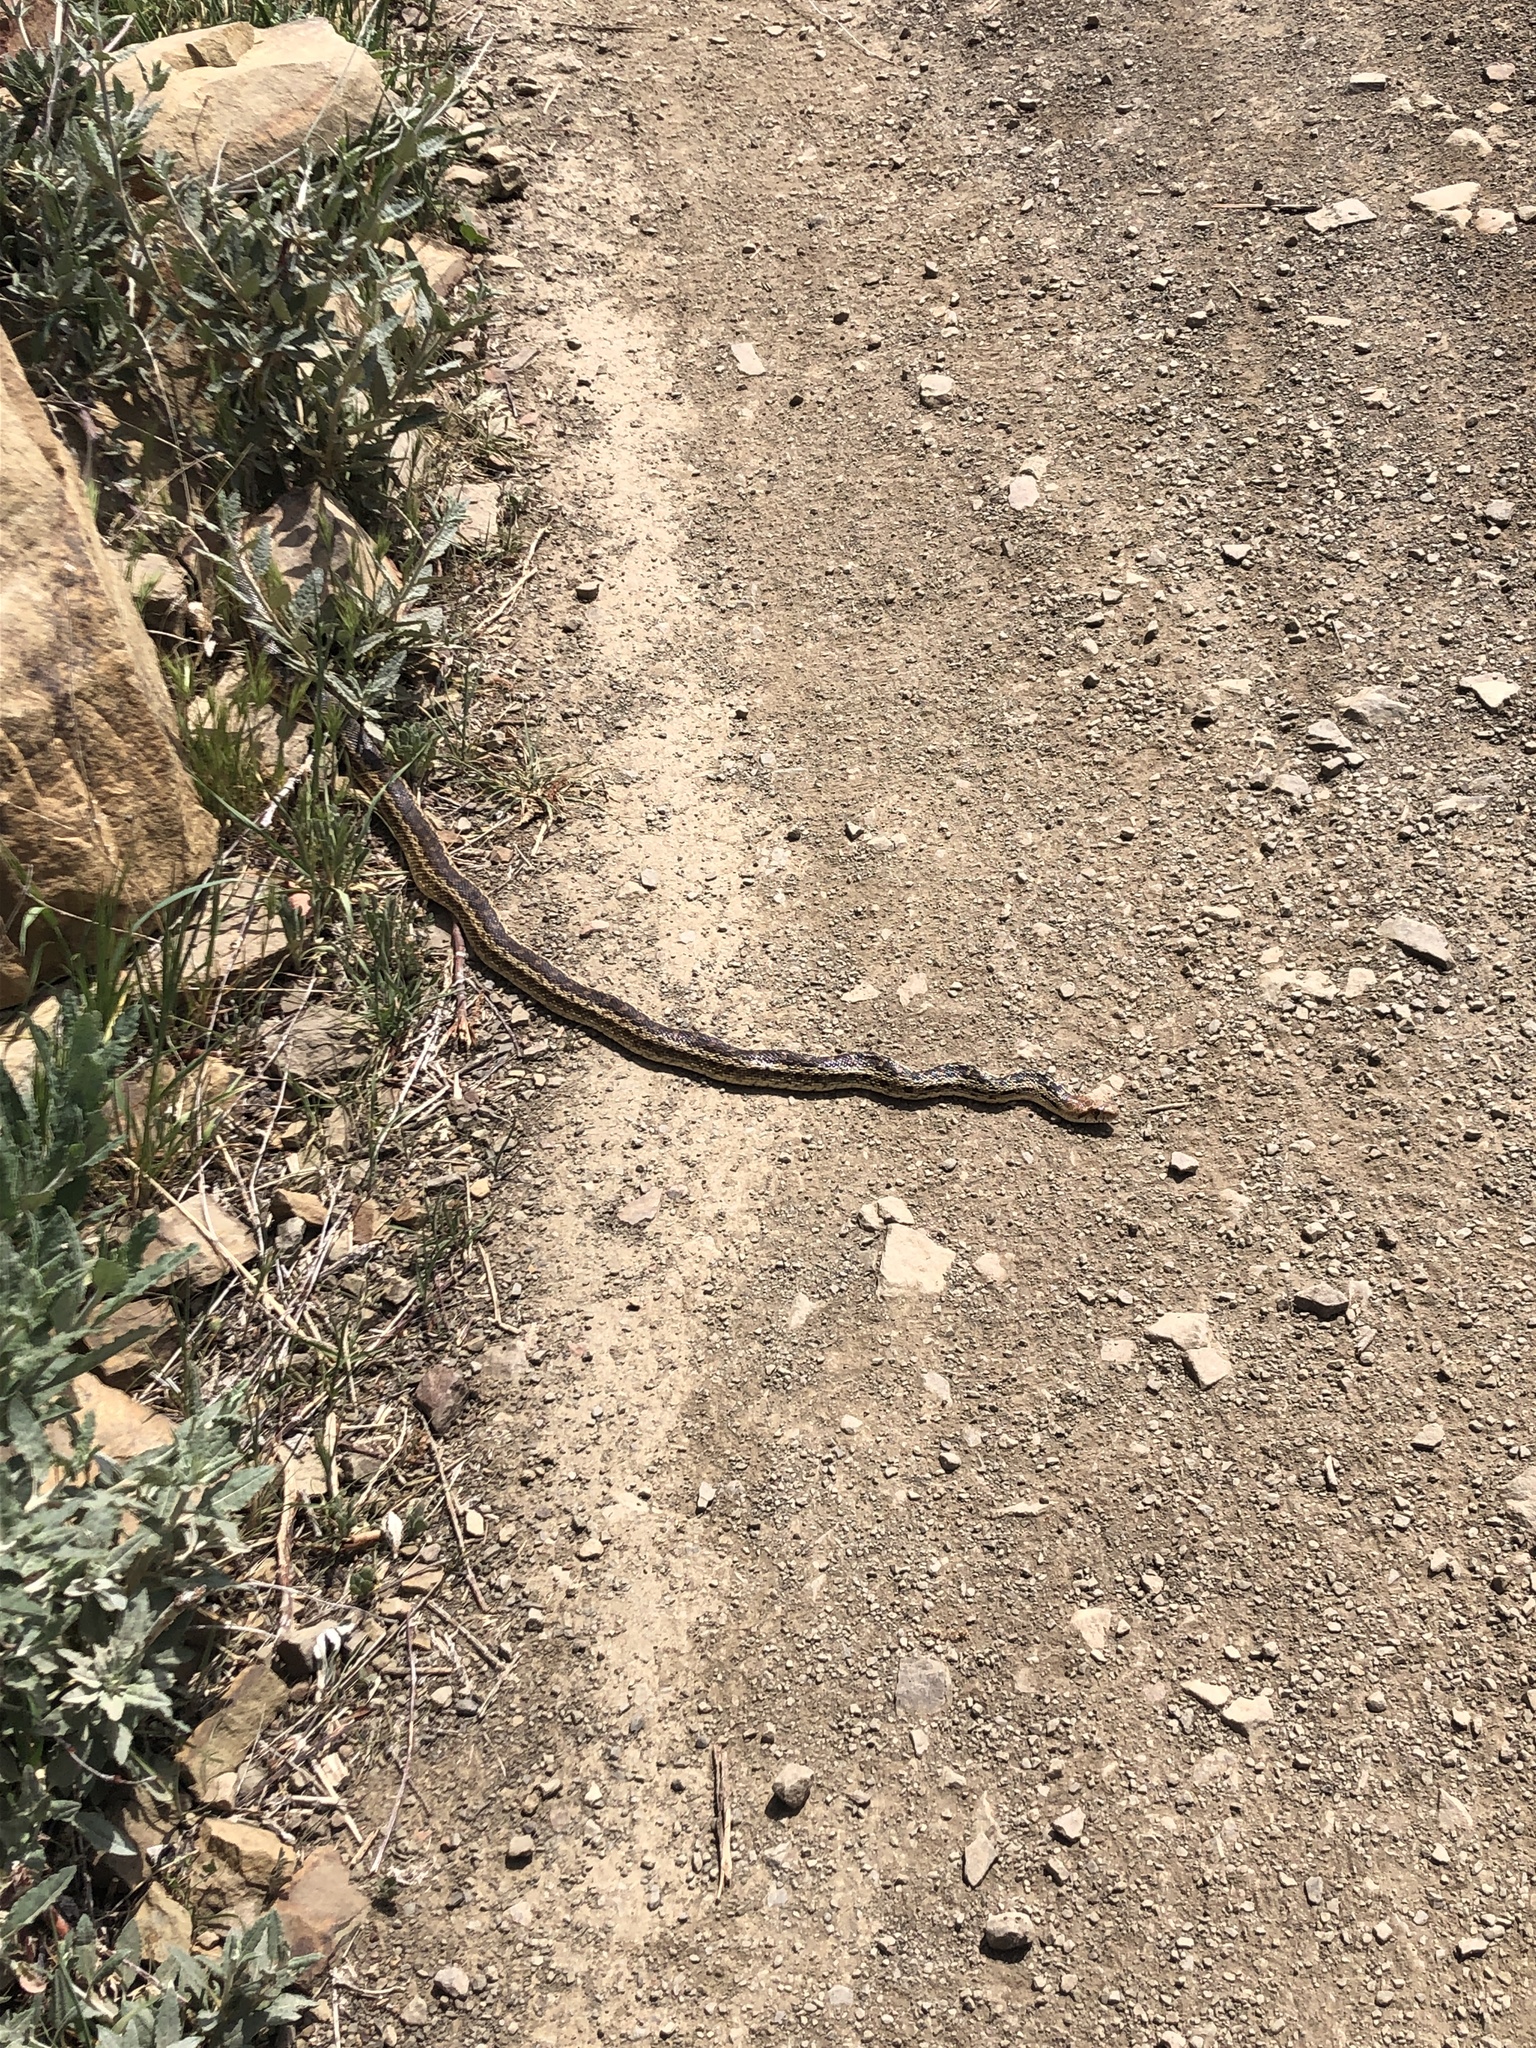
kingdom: Animalia
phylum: Chordata
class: Squamata
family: Colubridae
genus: Pituophis
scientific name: Pituophis catenifer
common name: Gopher snake
